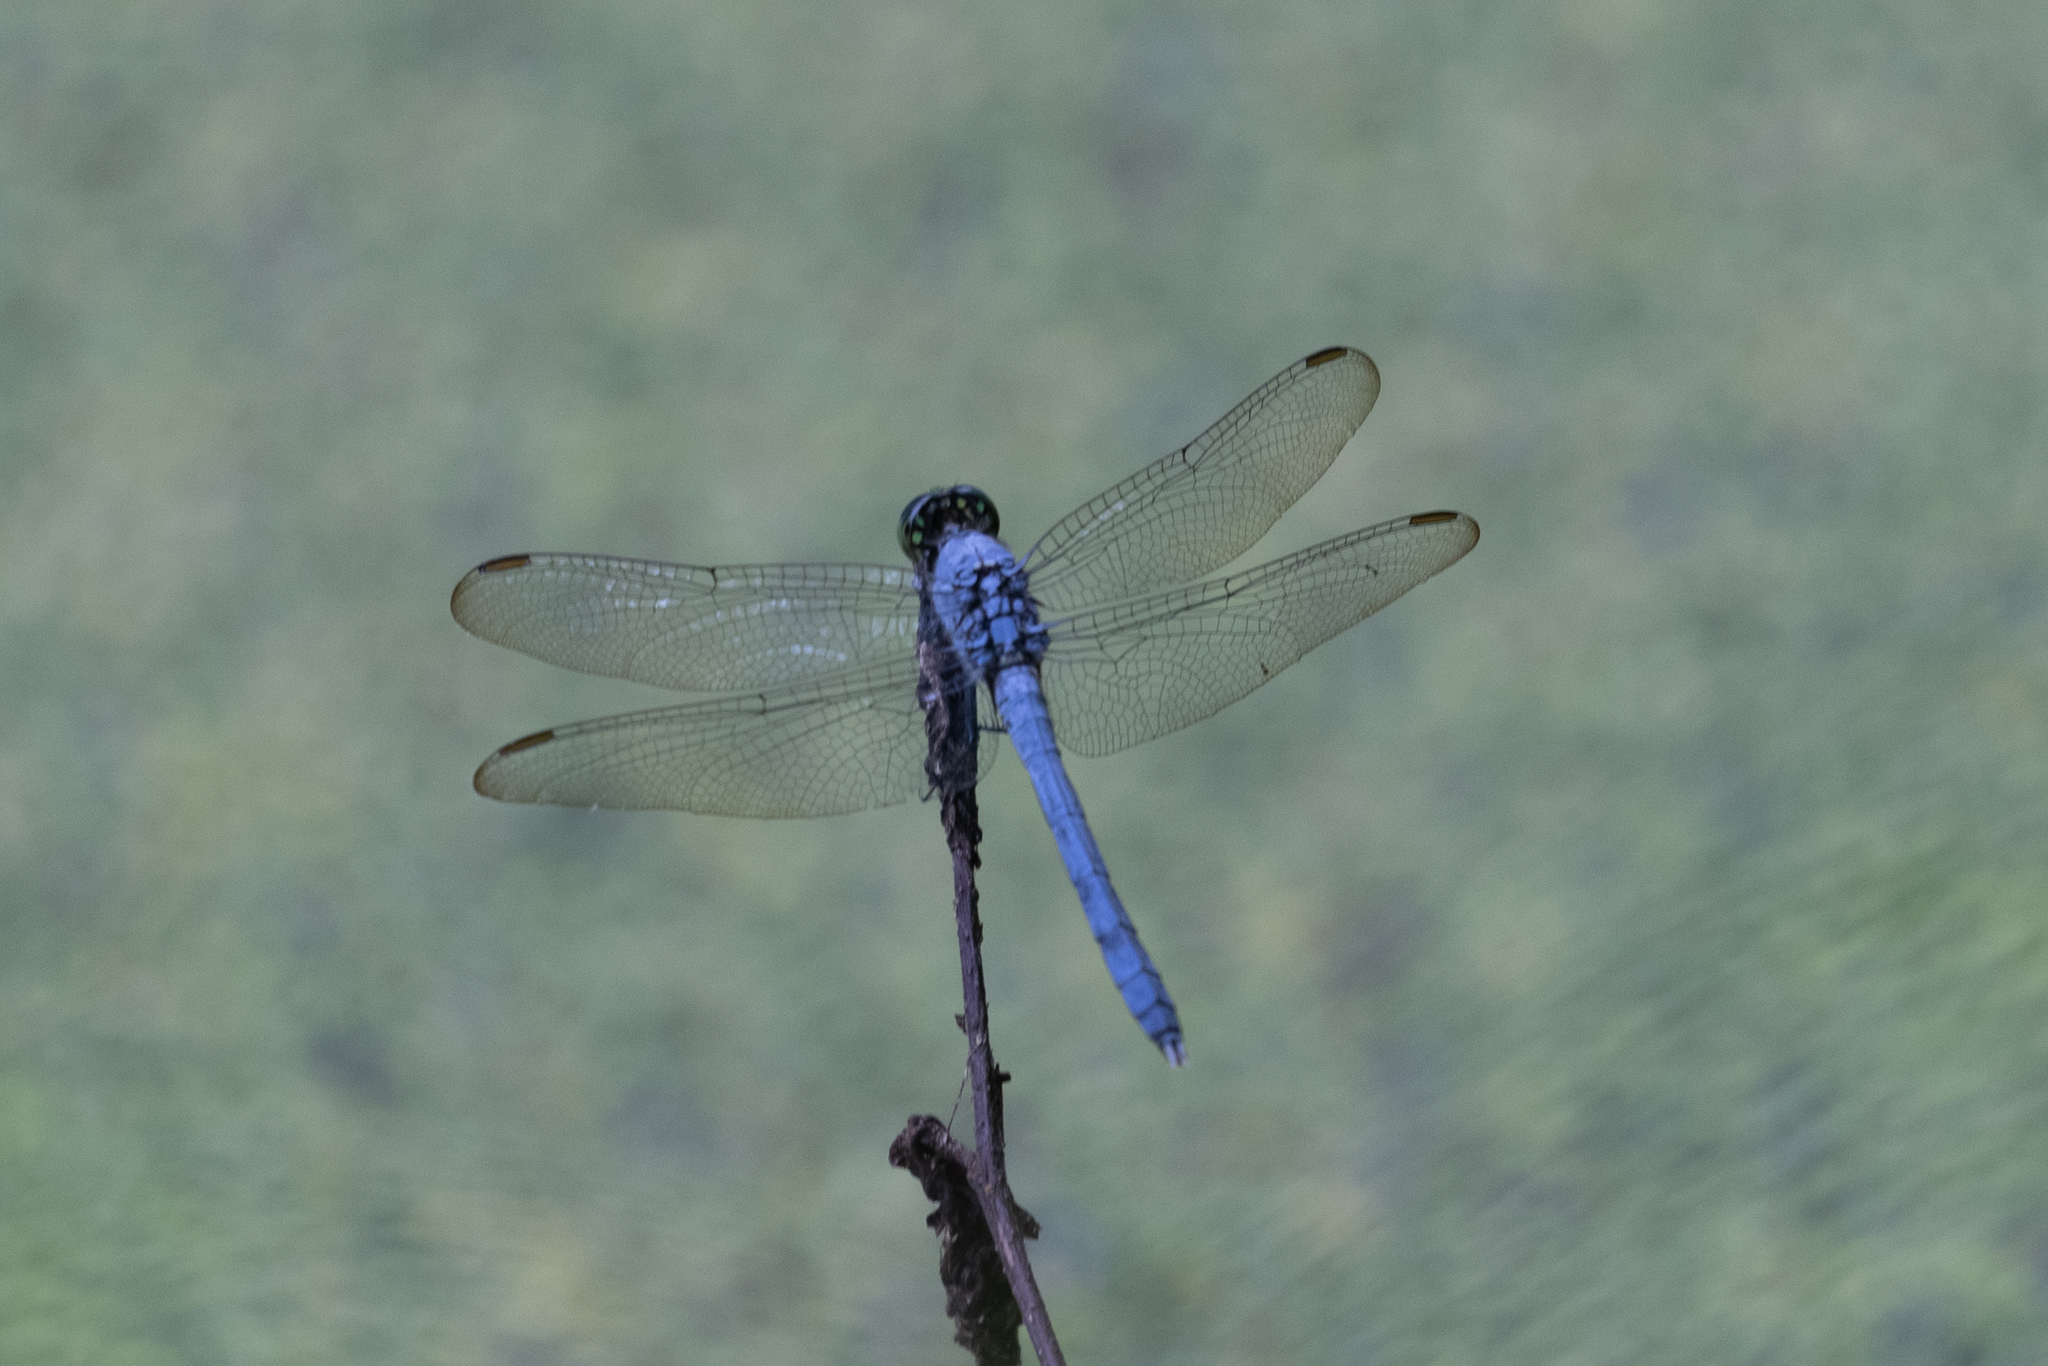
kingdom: Animalia
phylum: Arthropoda
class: Insecta
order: Odonata
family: Libellulidae
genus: Erythemis
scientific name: Erythemis simplicicollis
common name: Eastern pondhawk
